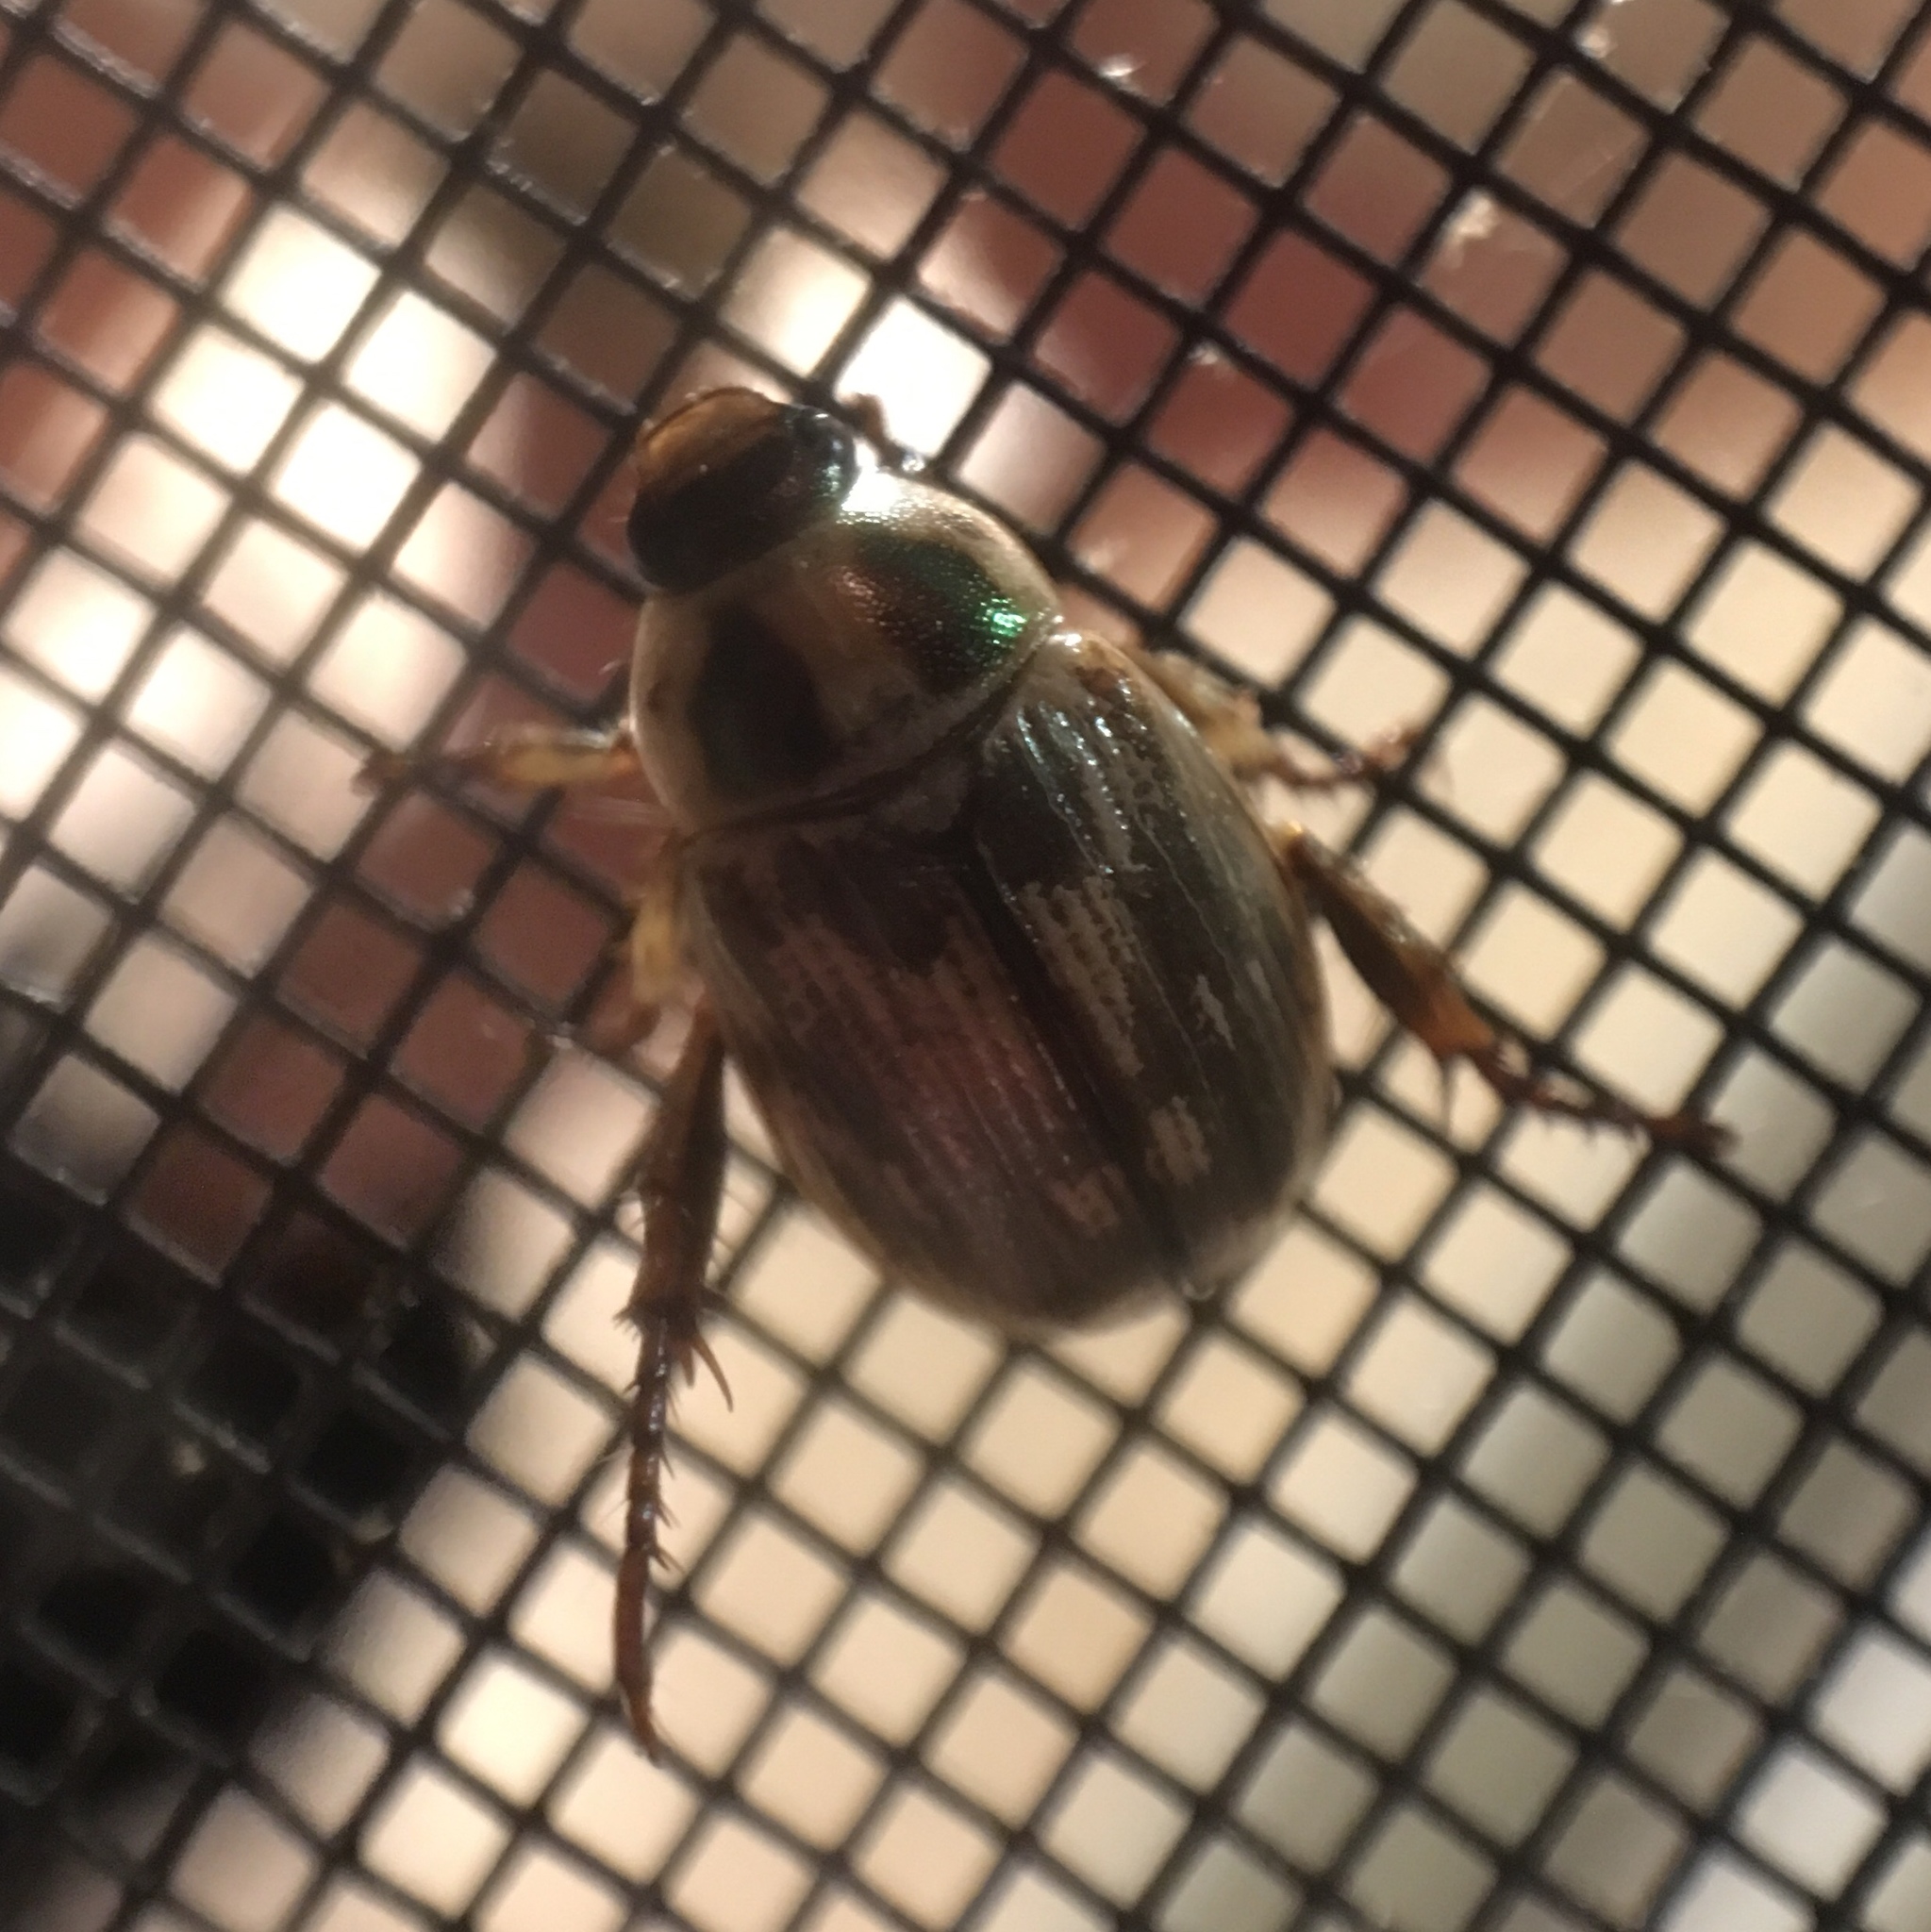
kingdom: Animalia
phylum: Arthropoda
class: Insecta
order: Coleoptera
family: Scarabaeidae
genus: Exomala
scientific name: Exomala orientalis
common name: Oriental beetle
